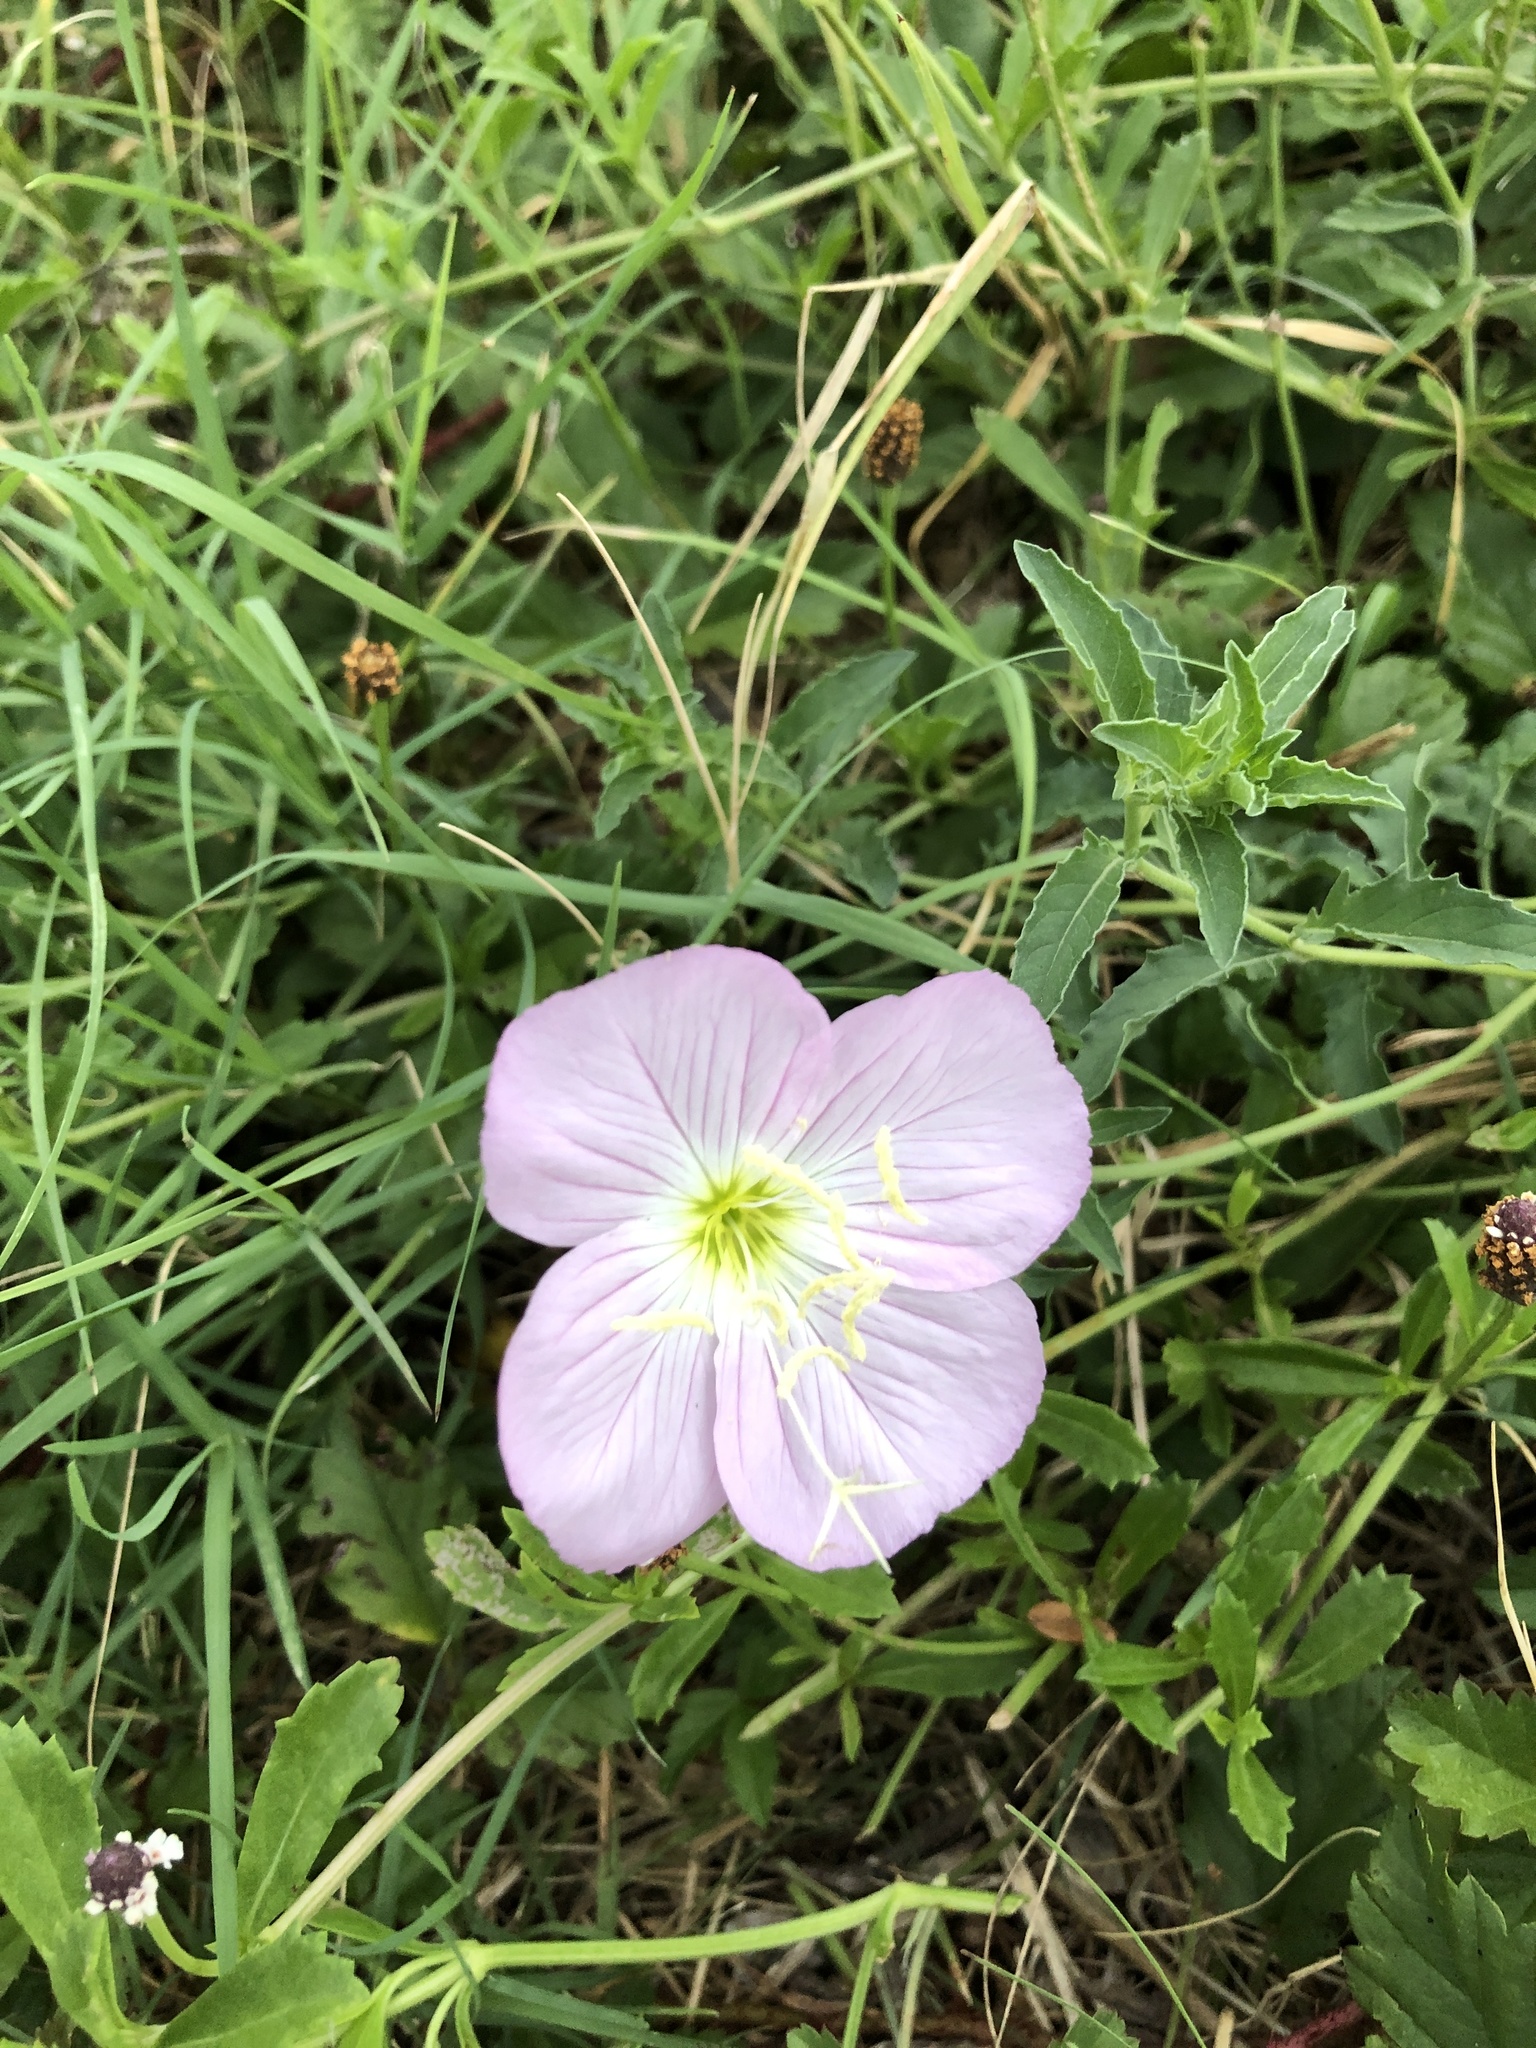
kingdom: Plantae
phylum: Tracheophyta
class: Magnoliopsida
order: Myrtales
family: Onagraceae
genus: Oenothera
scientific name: Oenothera speciosa
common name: White evening-primrose
